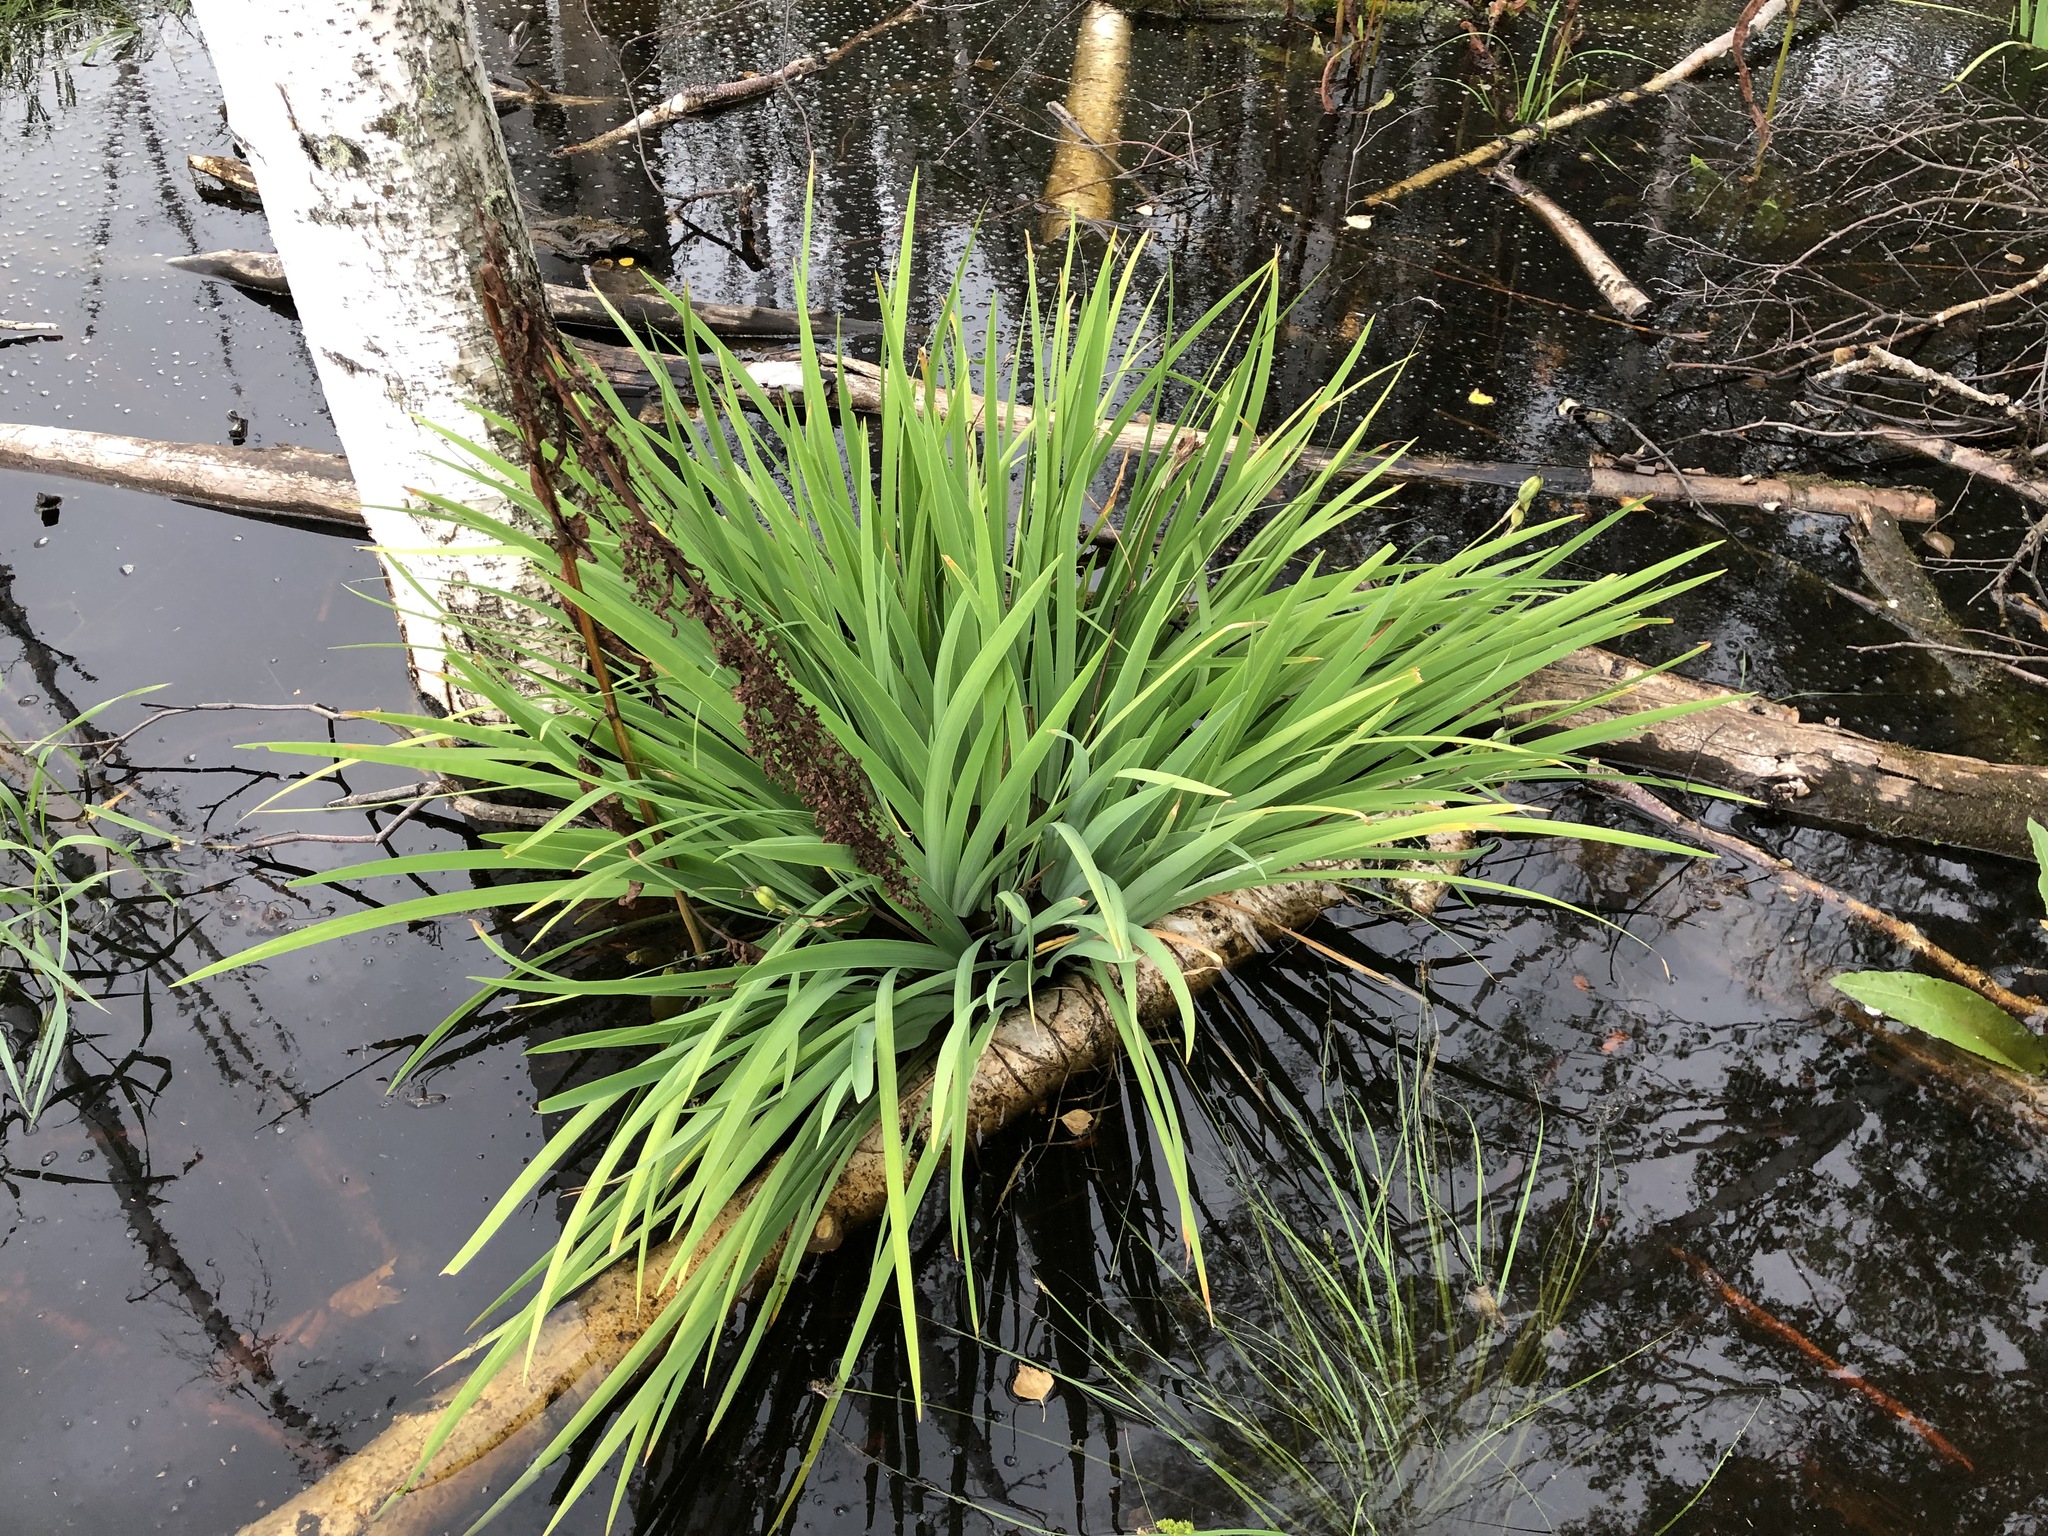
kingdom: Plantae
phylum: Tracheophyta
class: Liliopsida
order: Asparagales
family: Iridaceae
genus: Iris
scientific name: Iris setosa
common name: Arctic blue flag
